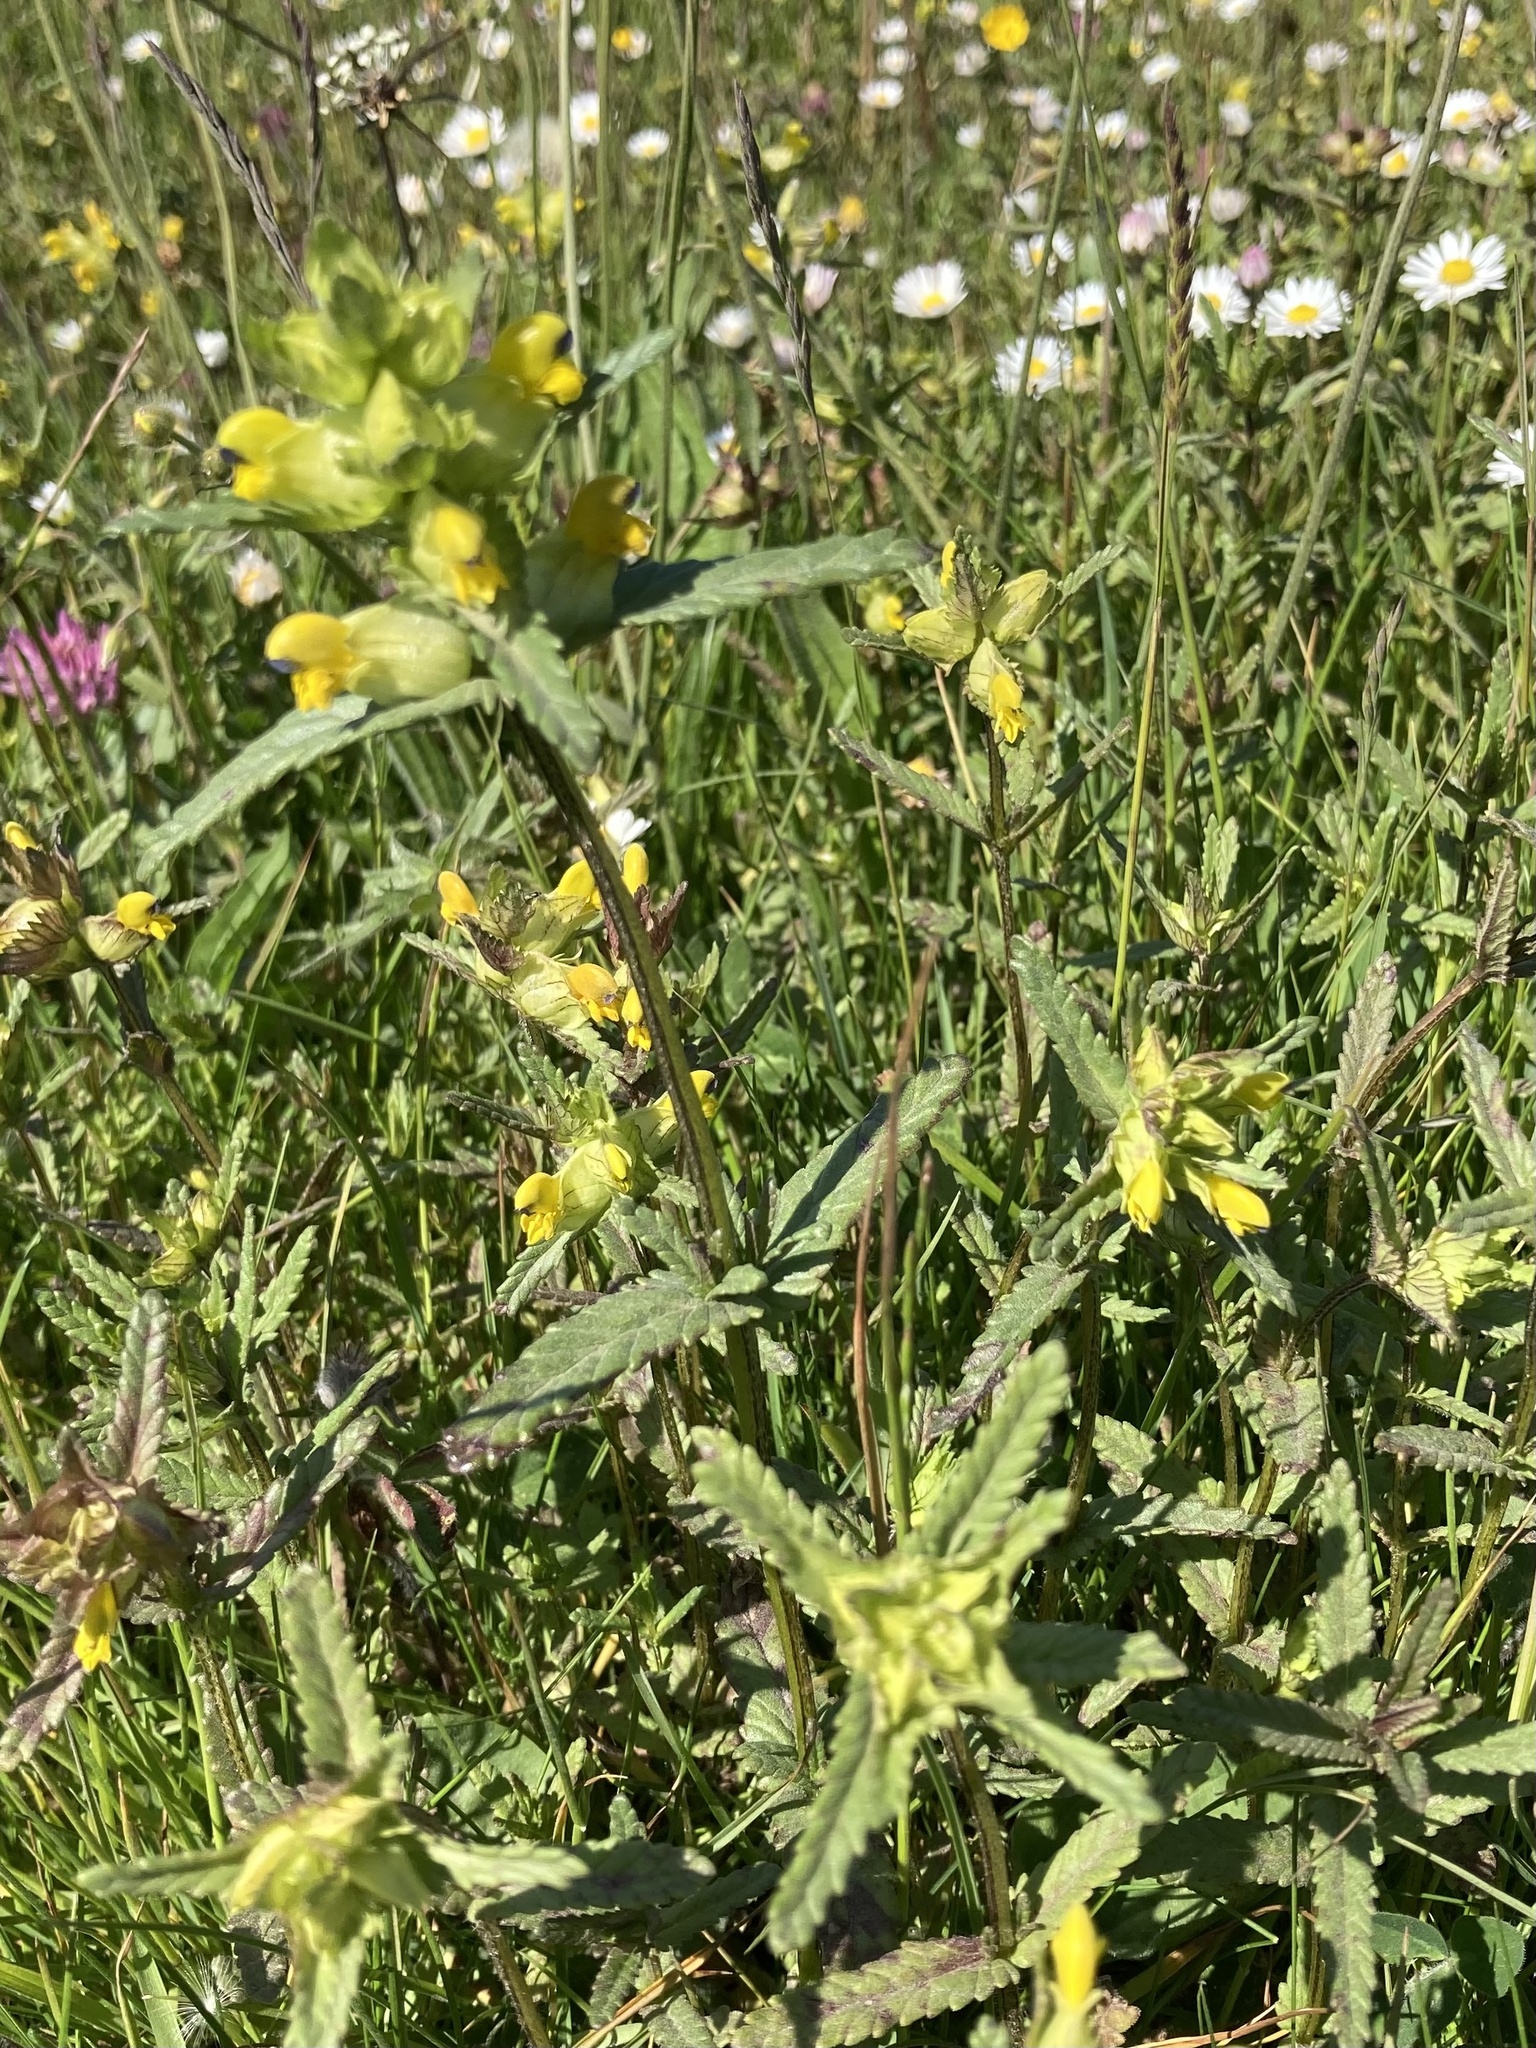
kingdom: Plantae
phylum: Tracheophyta
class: Magnoliopsida
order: Lamiales
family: Orobanchaceae
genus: Rhinanthus
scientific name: Rhinanthus minor
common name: Yellow-rattle
